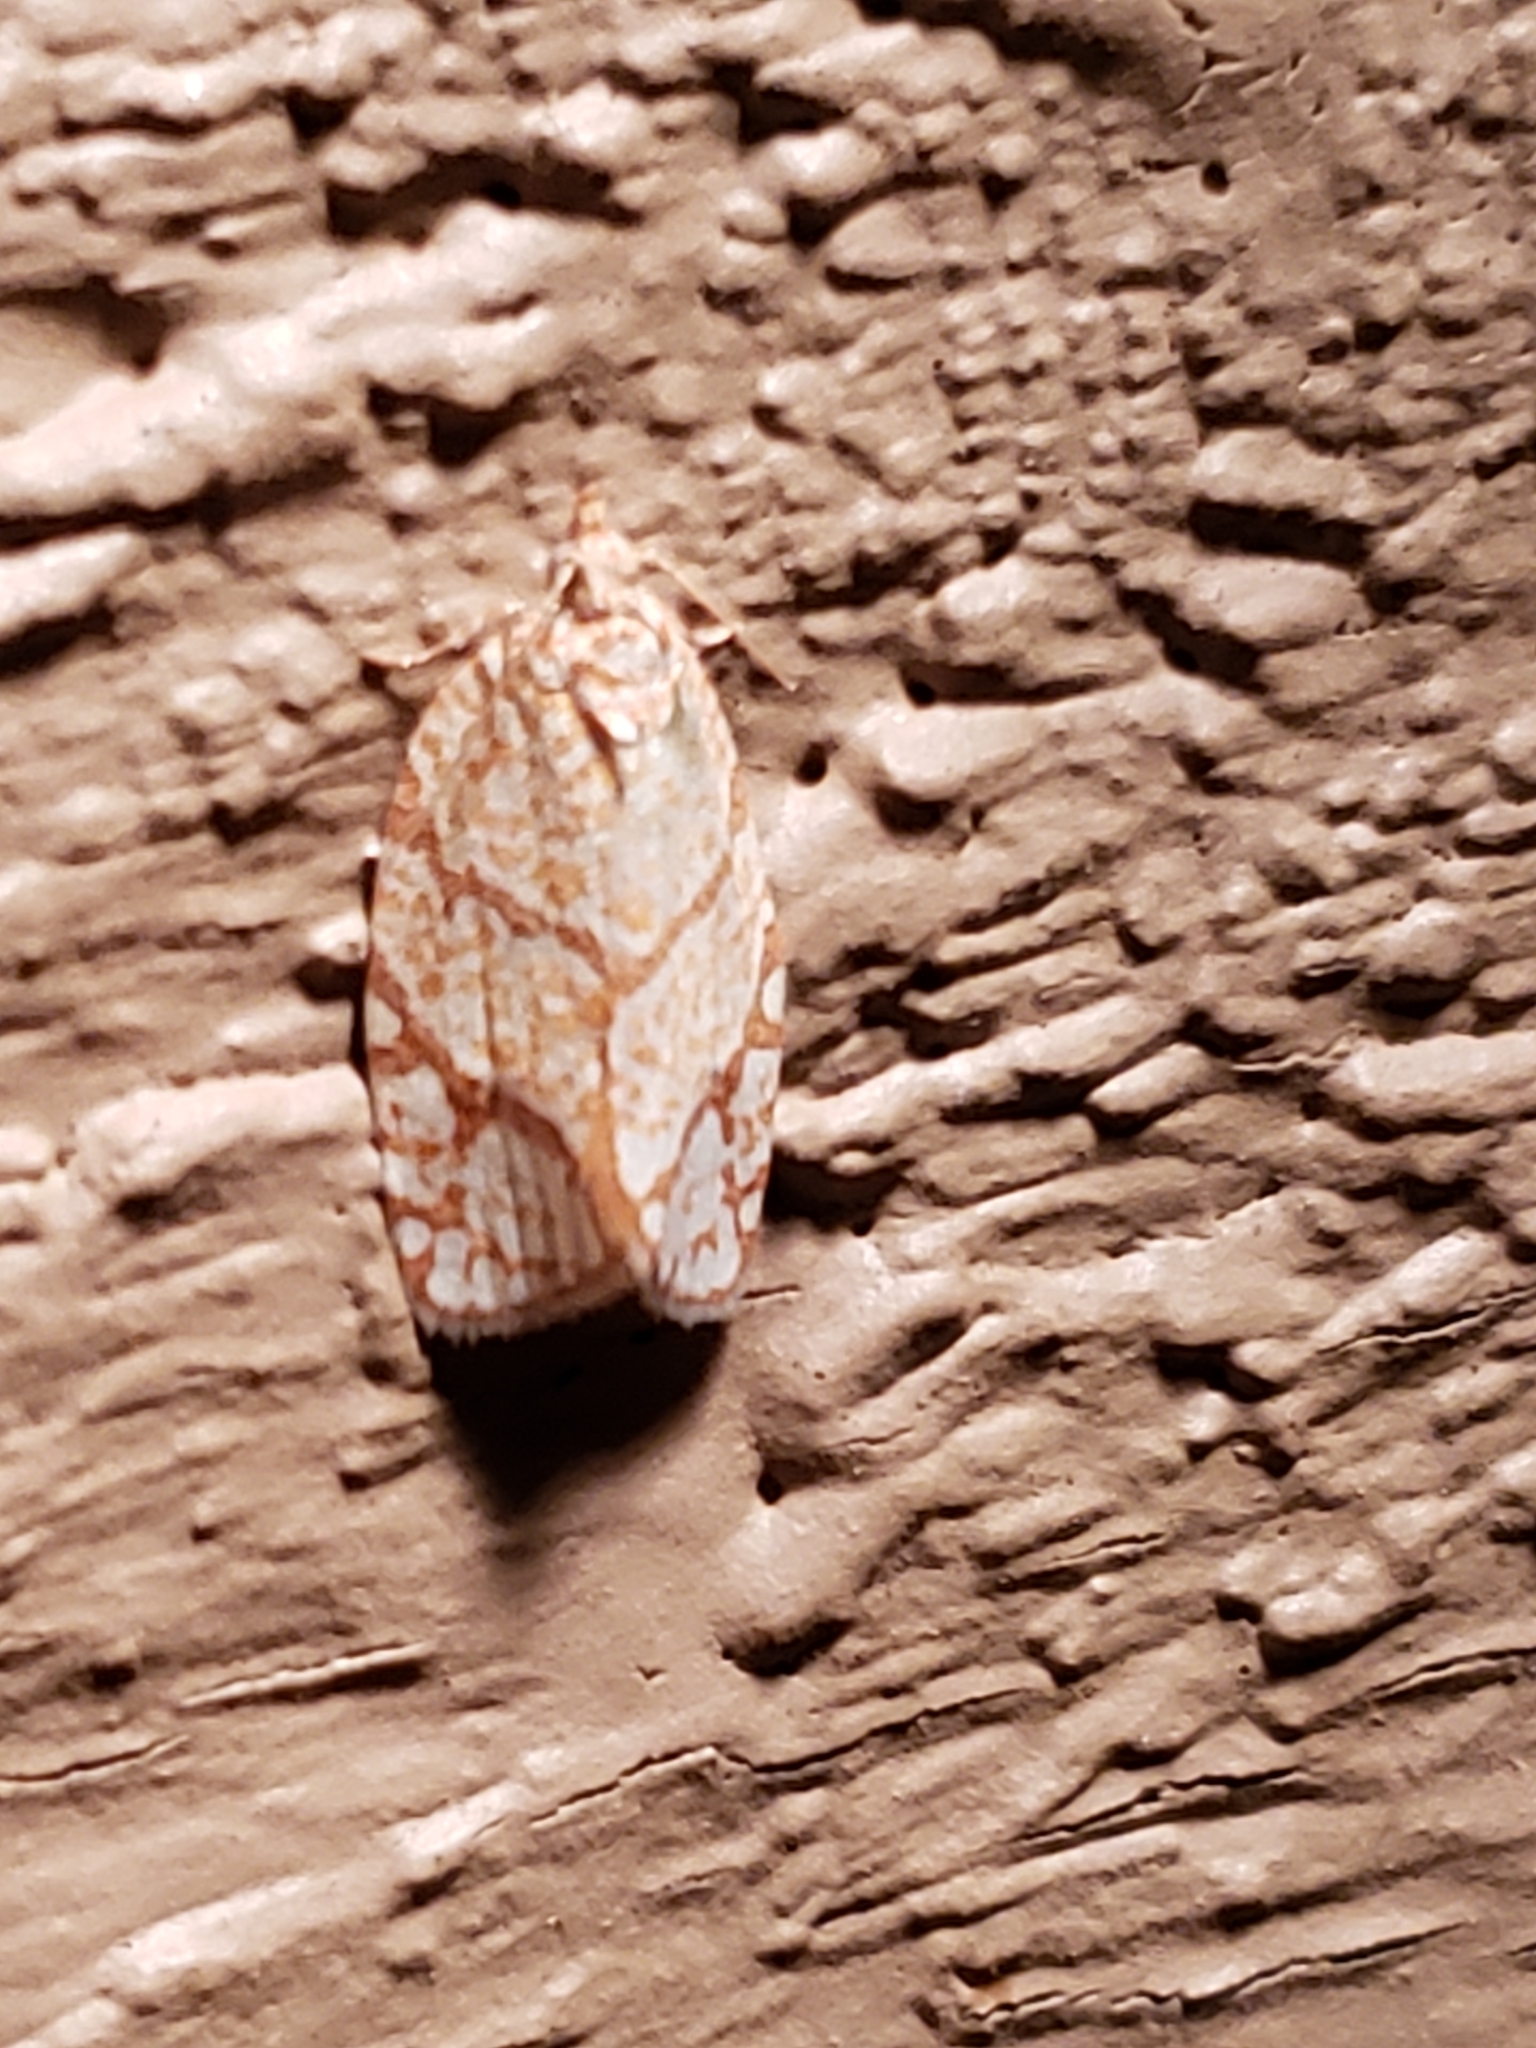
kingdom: Animalia
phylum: Arthropoda
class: Insecta
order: Lepidoptera
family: Tortricidae
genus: Argyrotaenia
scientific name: Argyrotaenia quercifoliana
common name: Yellow-winged oak leafroller moth
